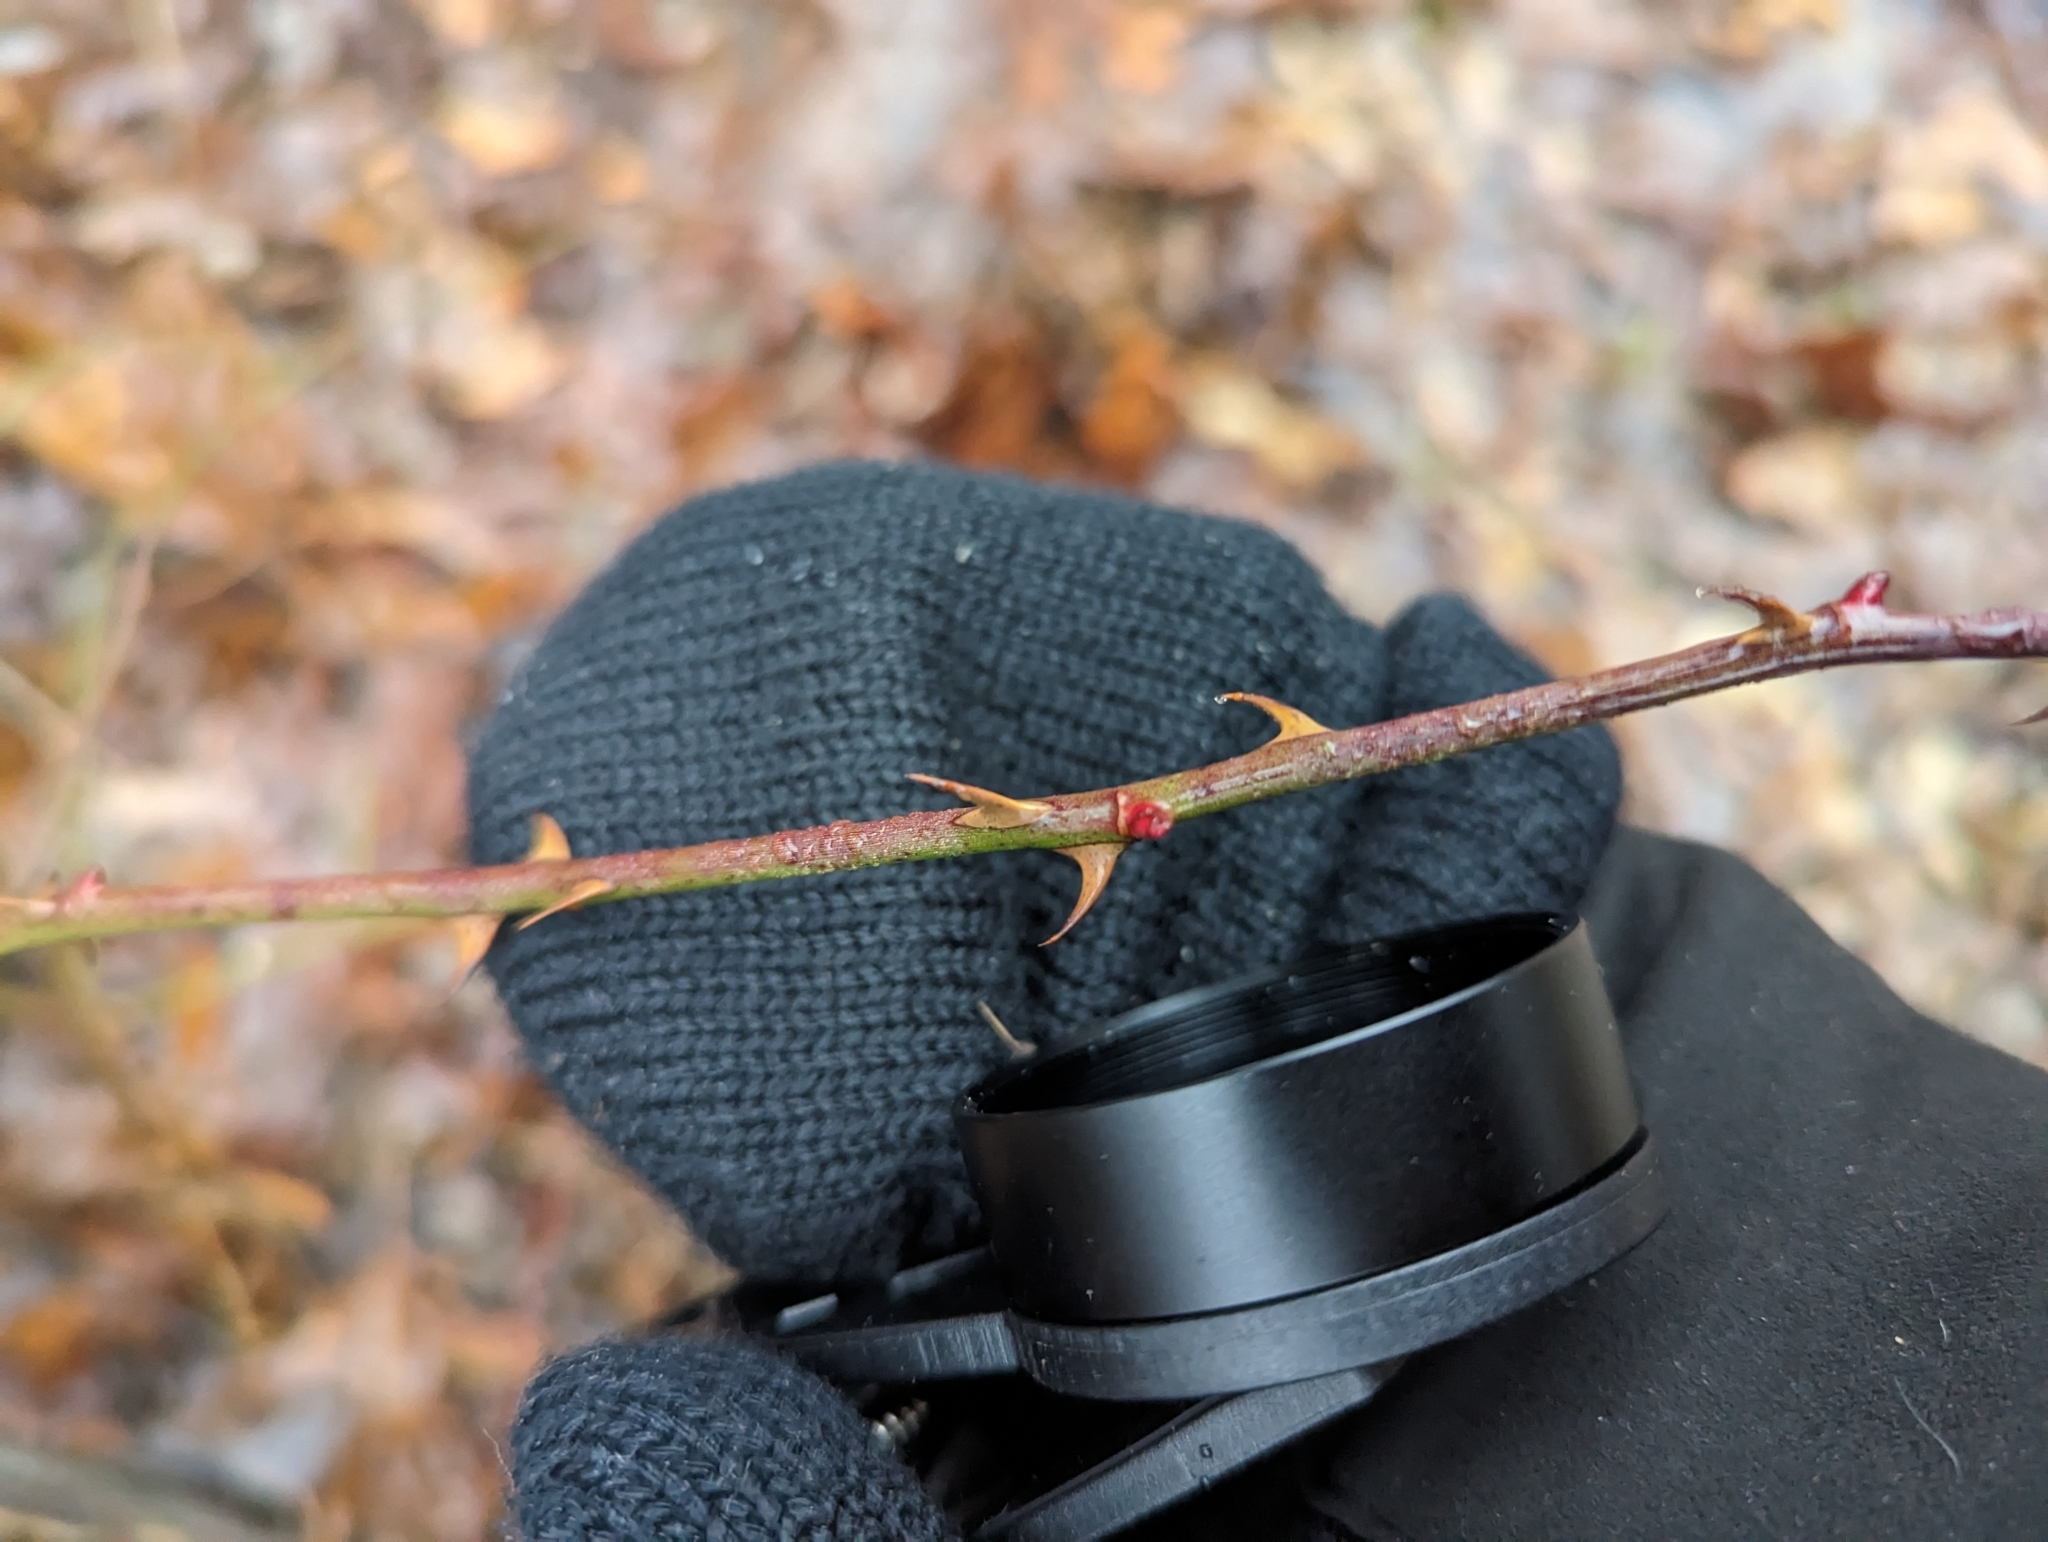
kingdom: Plantae
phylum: Tracheophyta
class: Magnoliopsida
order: Rosales
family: Rosaceae
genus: Rosa
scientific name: Rosa multiflora
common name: Multiflora rose
